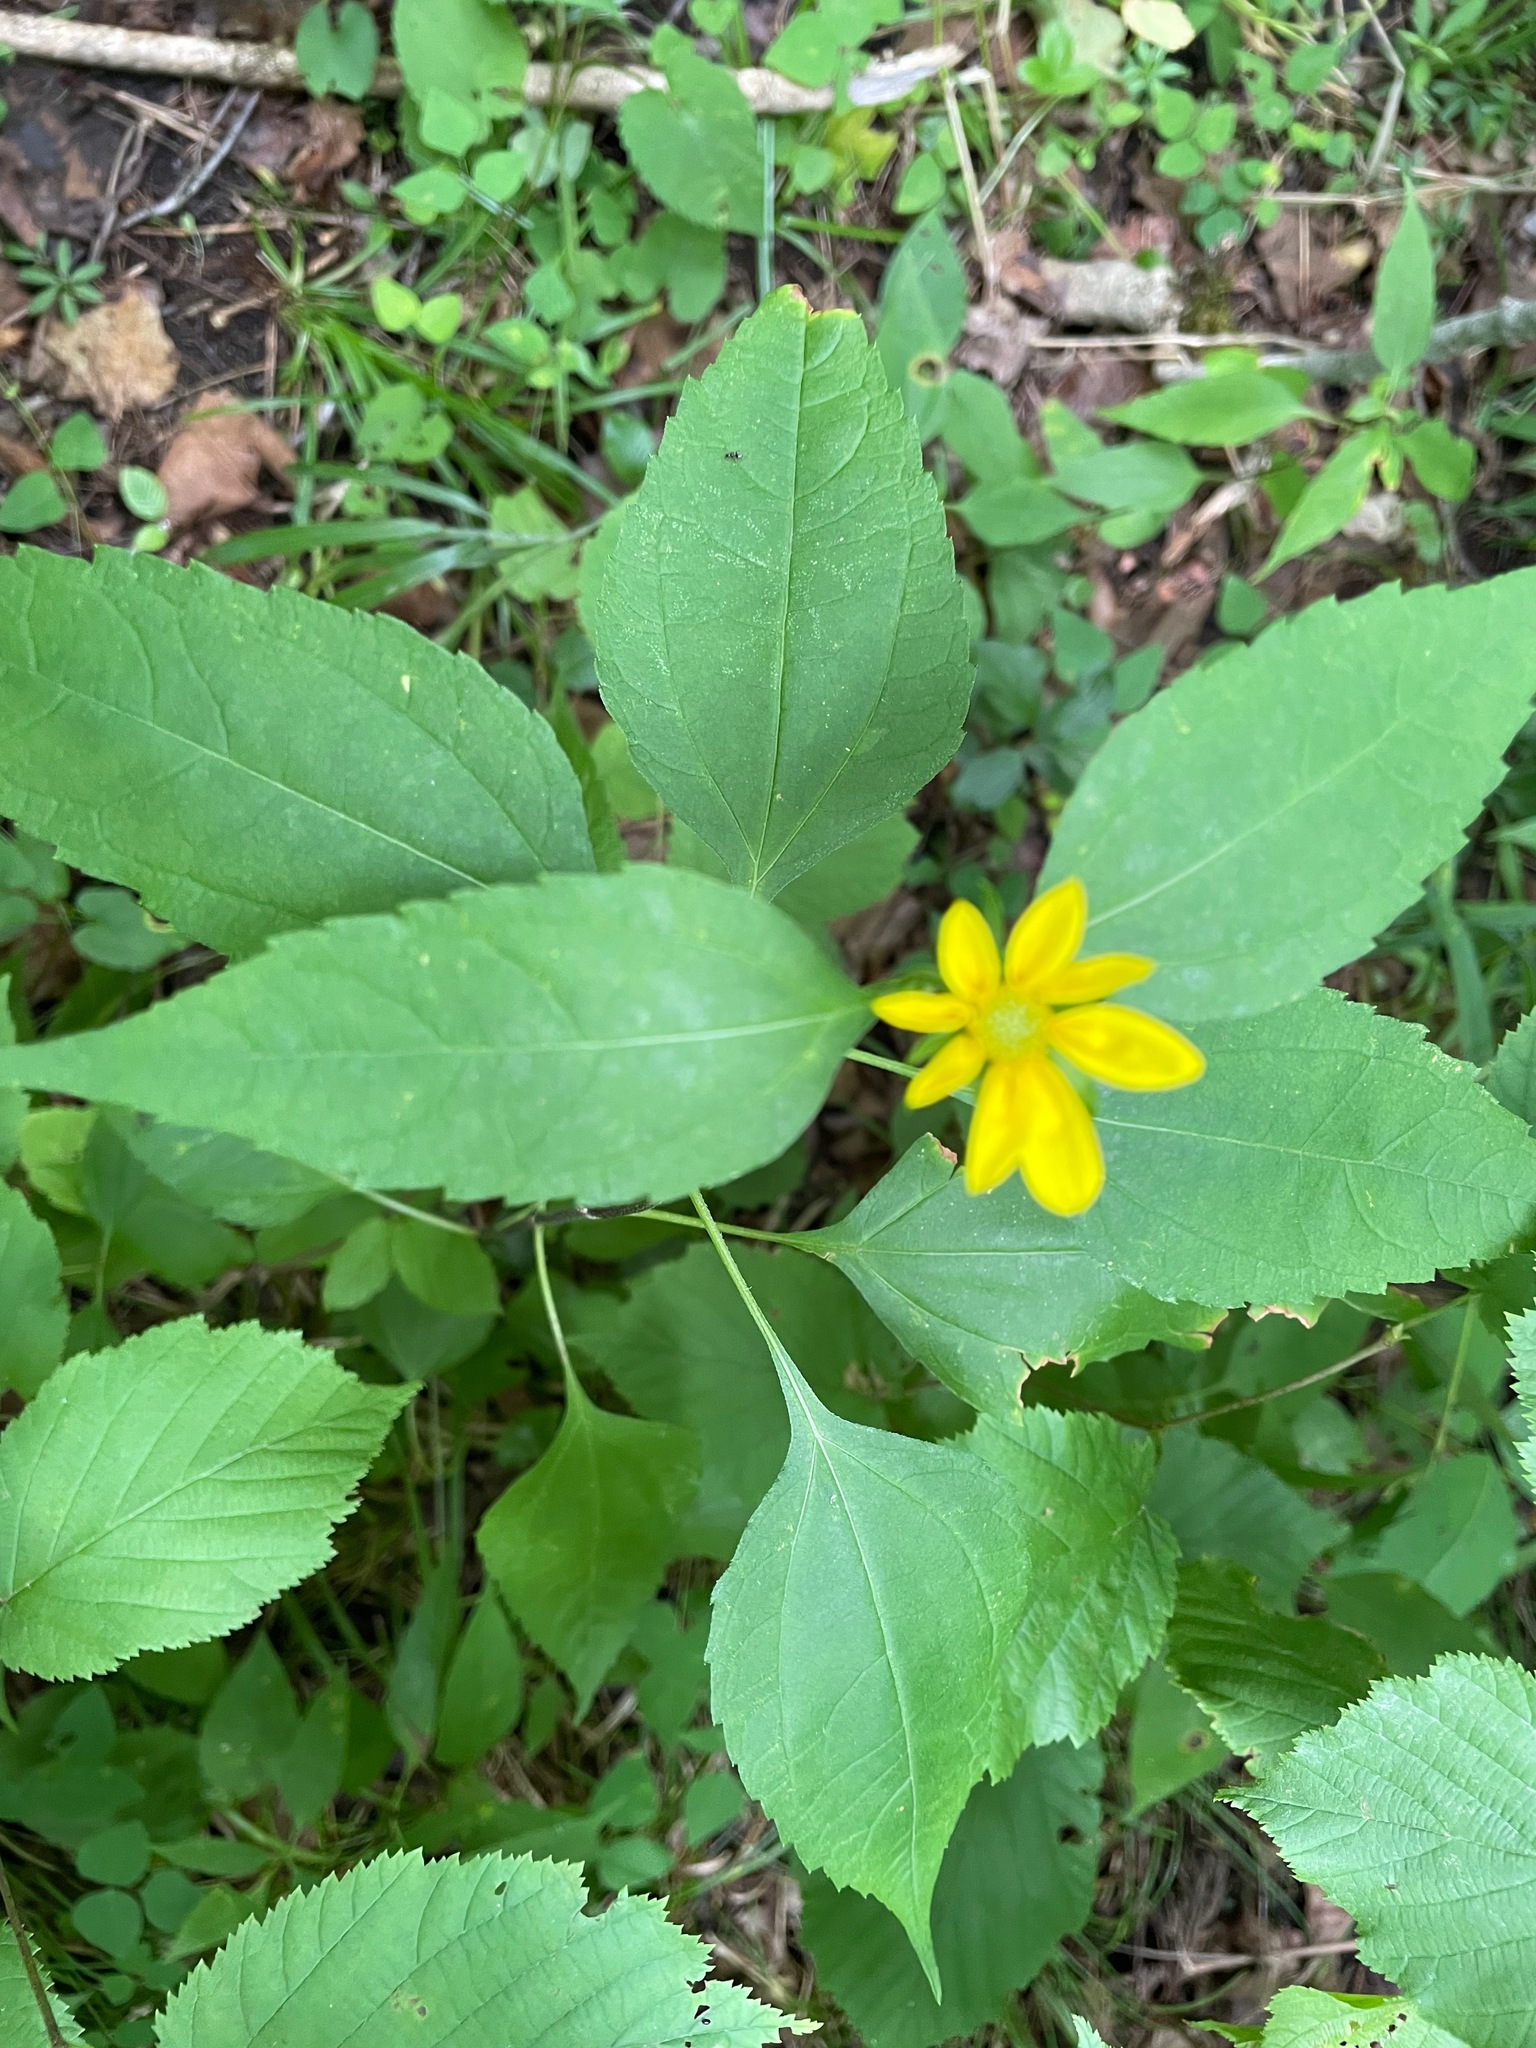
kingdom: Plantae
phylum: Tracheophyta
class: Magnoliopsida
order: Asterales
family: Asteraceae
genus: Helianthus
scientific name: Helianthus decapetalus
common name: Thin-leaved sunflower
